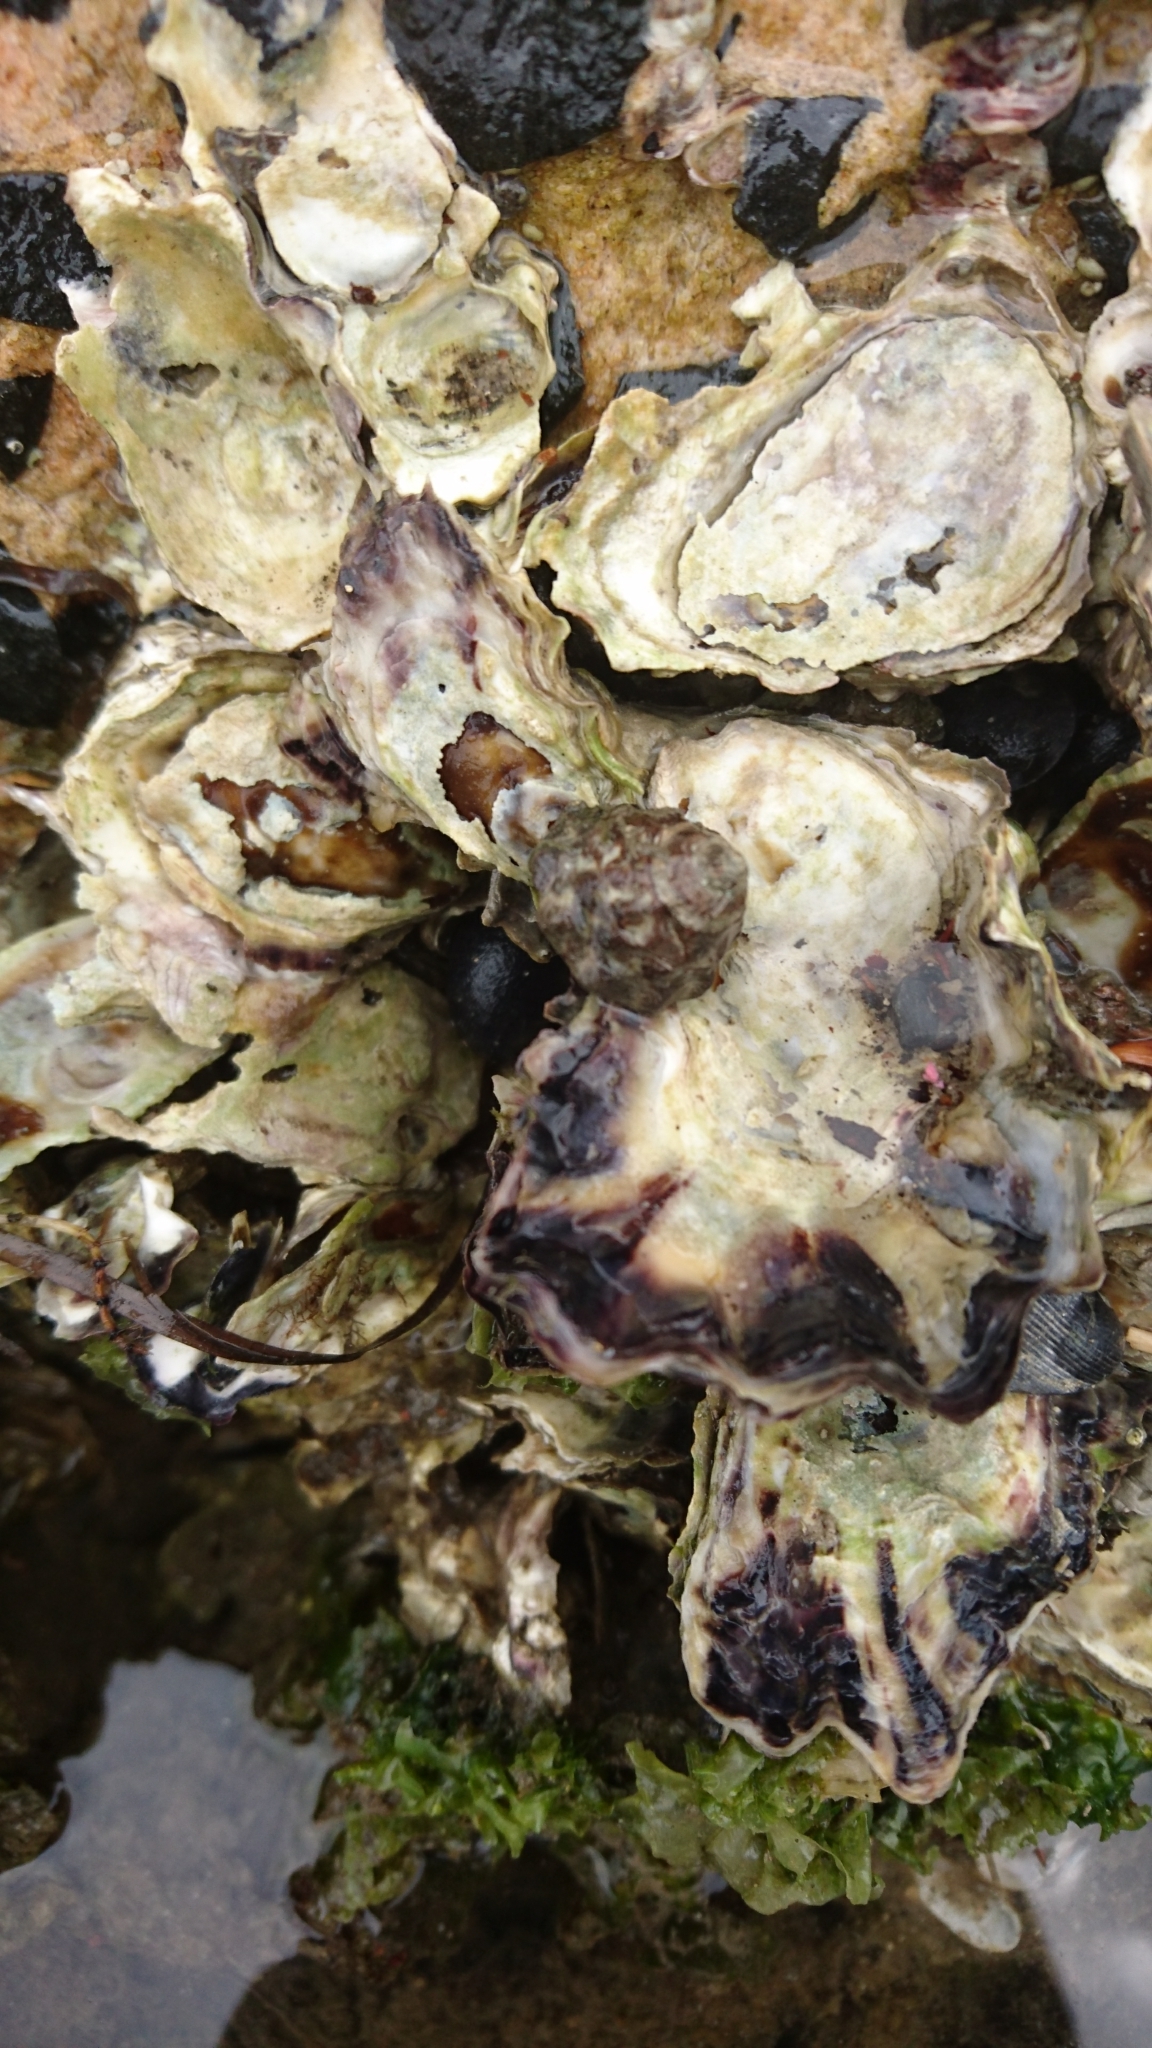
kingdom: Animalia
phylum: Mollusca
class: Gastropoda
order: Littorinimorpha
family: Littorinidae
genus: Bembicium
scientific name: Bembicium auratum
